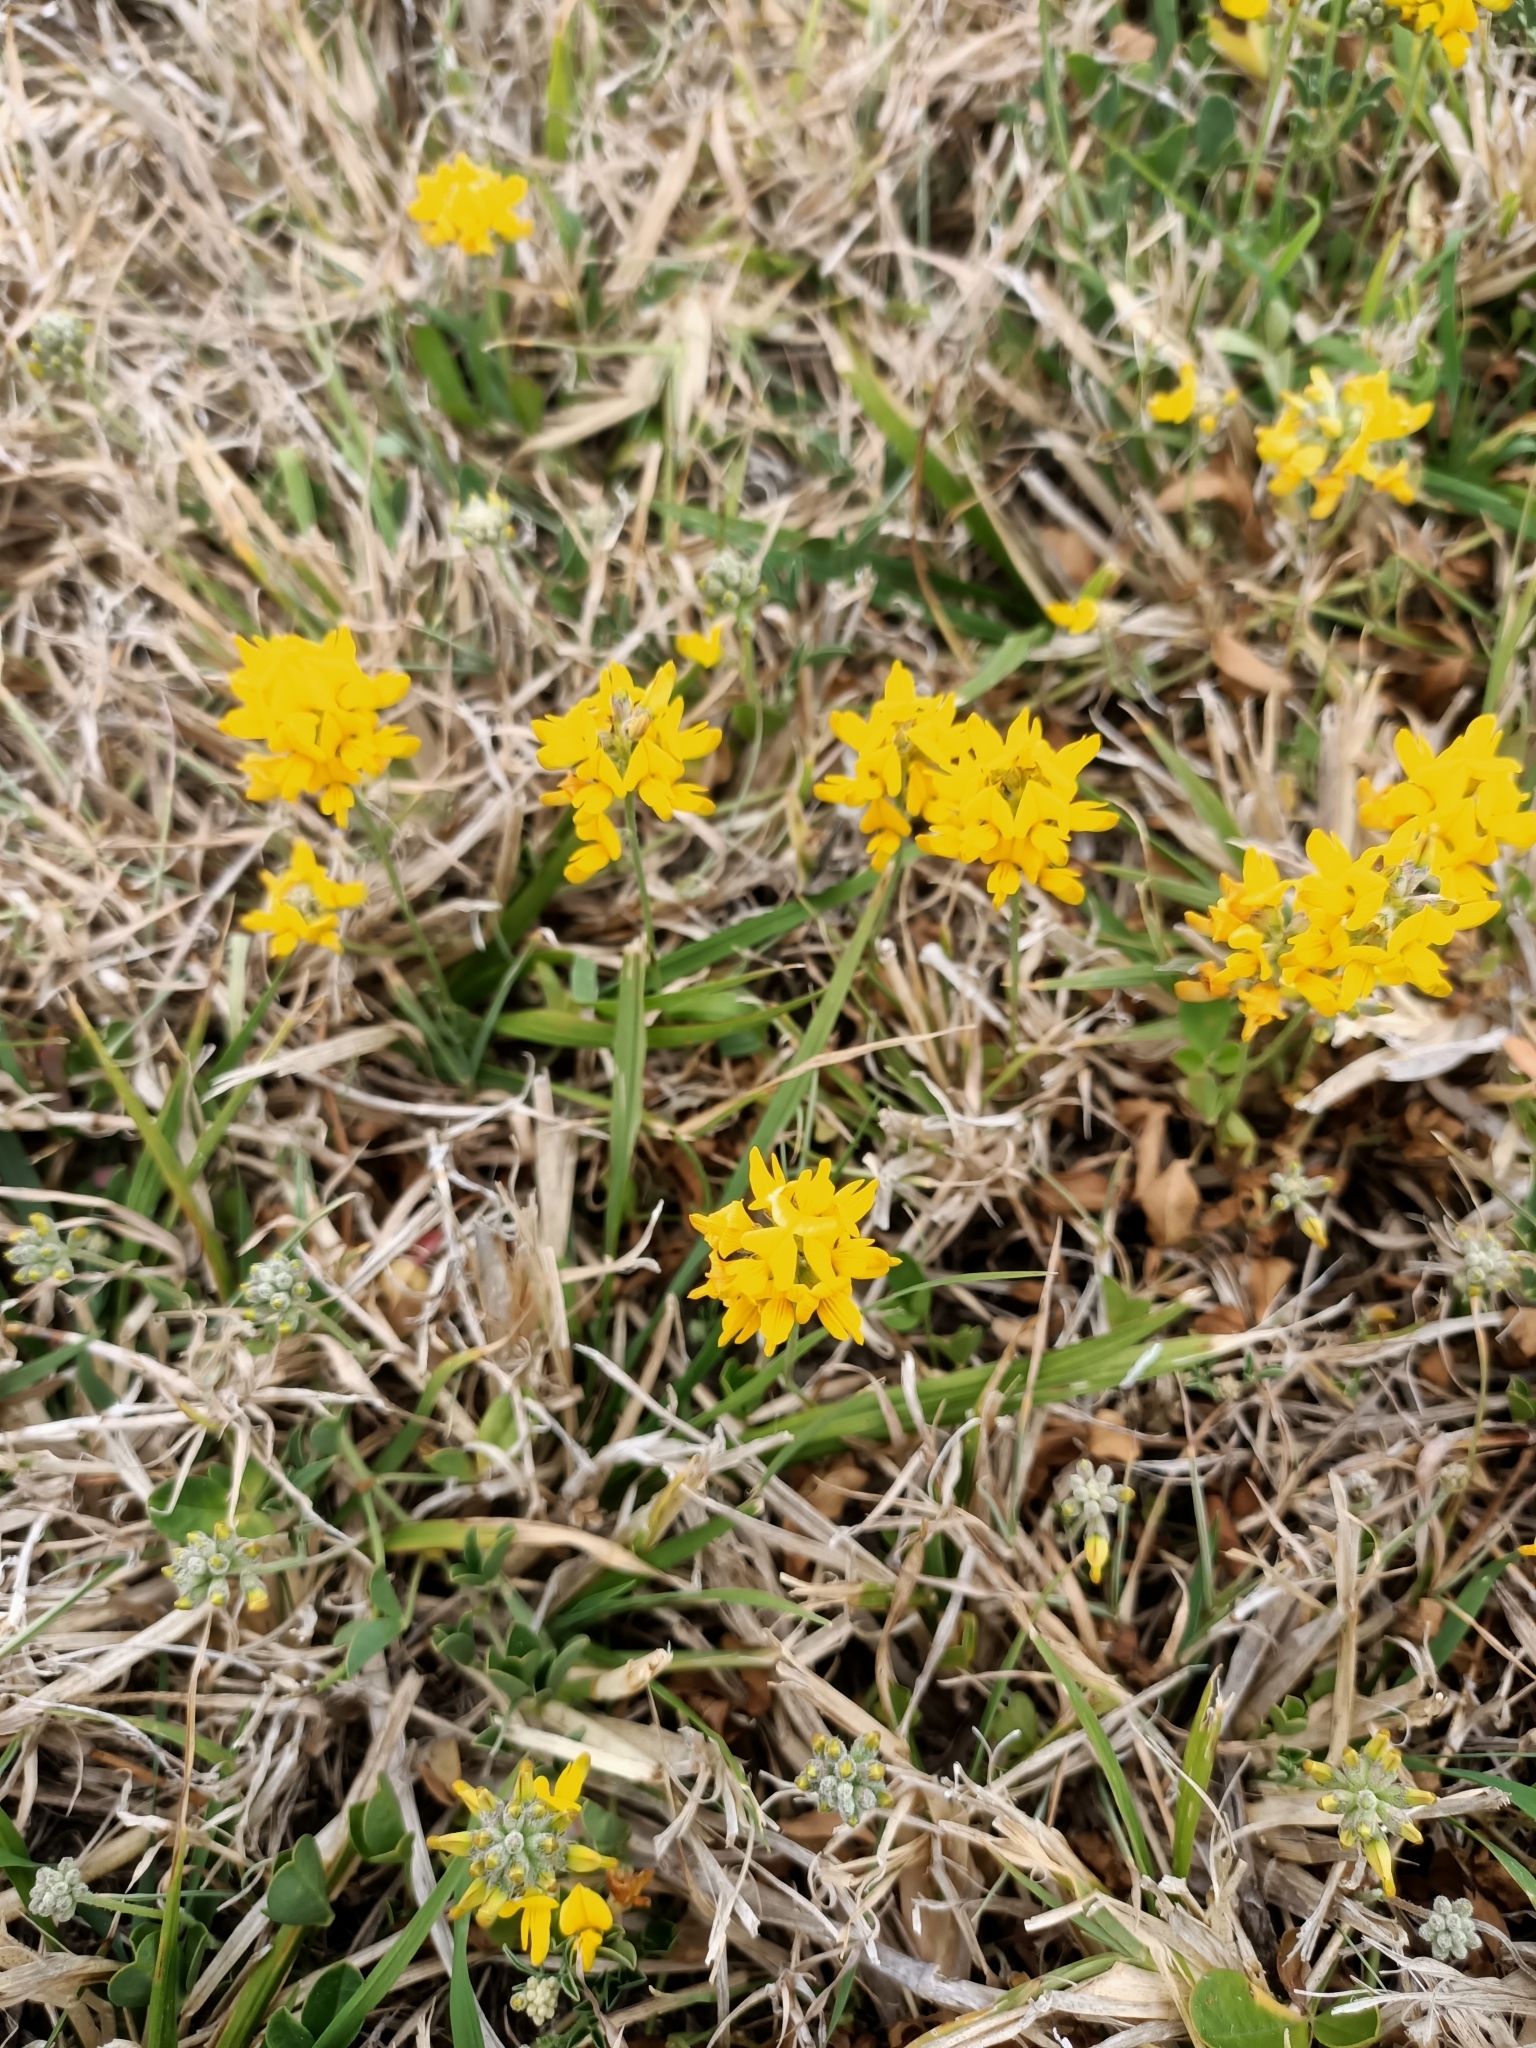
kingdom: Plantae
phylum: Tracheophyta
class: Magnoliopsida
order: Fabales
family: Fabaceae
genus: Listia
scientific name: Listia bainesii
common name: Lotononis
